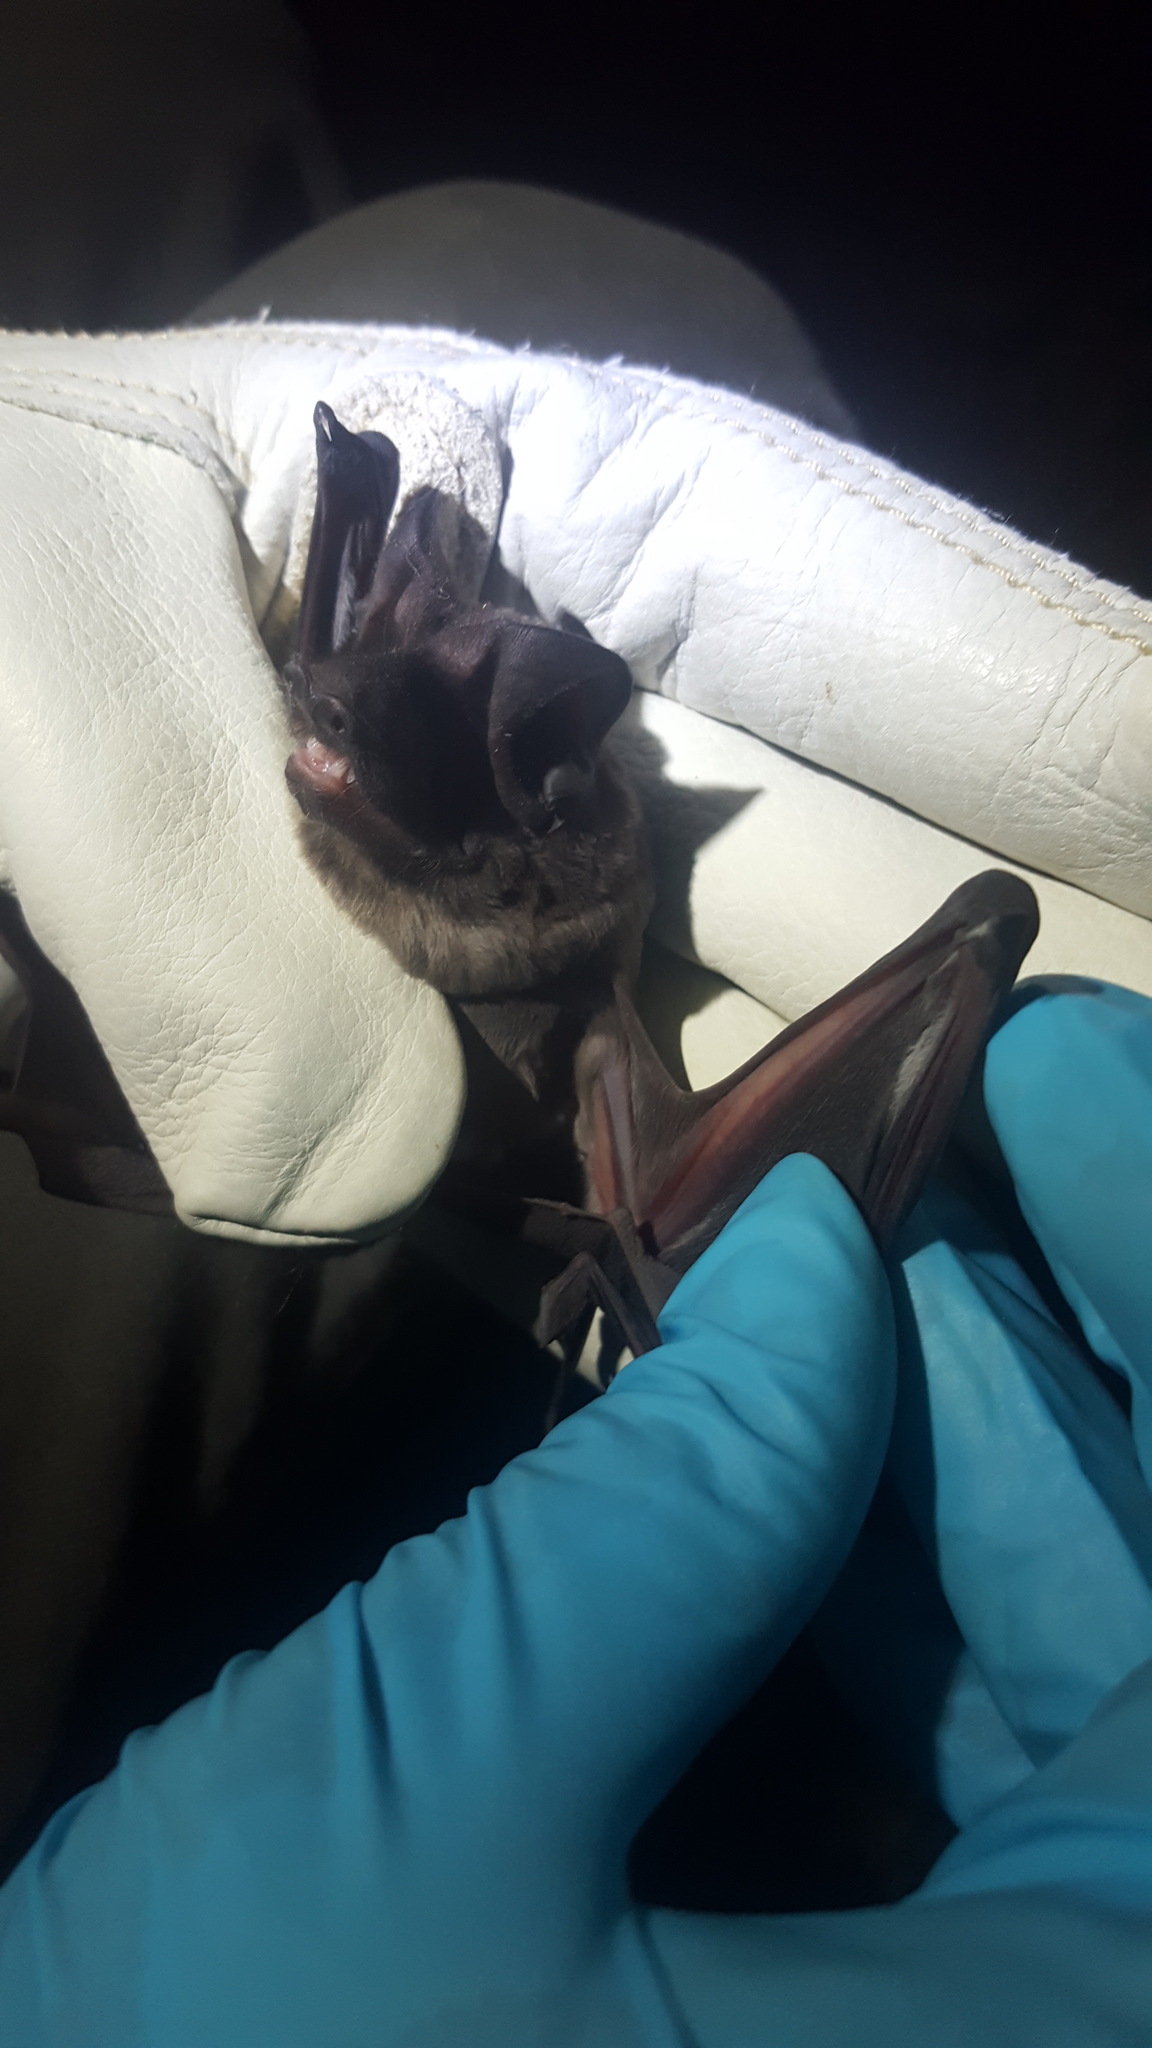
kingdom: Animalia
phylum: Chordata
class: Mammalia
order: Chiroptera
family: Molossidae
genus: Eumops
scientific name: Eumops floridanus
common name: Florida bonneted bat
